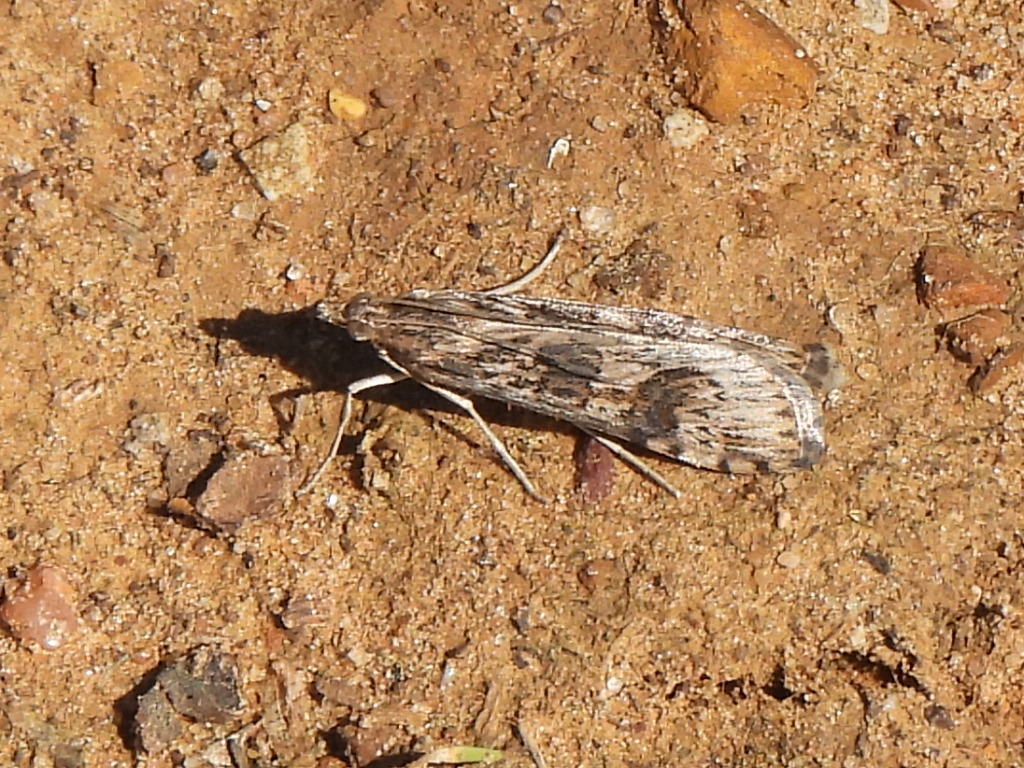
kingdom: Animalia
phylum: Arthropoda
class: Insecta
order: Lepidoptera
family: Crambidae
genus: Nomophila
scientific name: Nomophila nearctica
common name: American rush veneer
